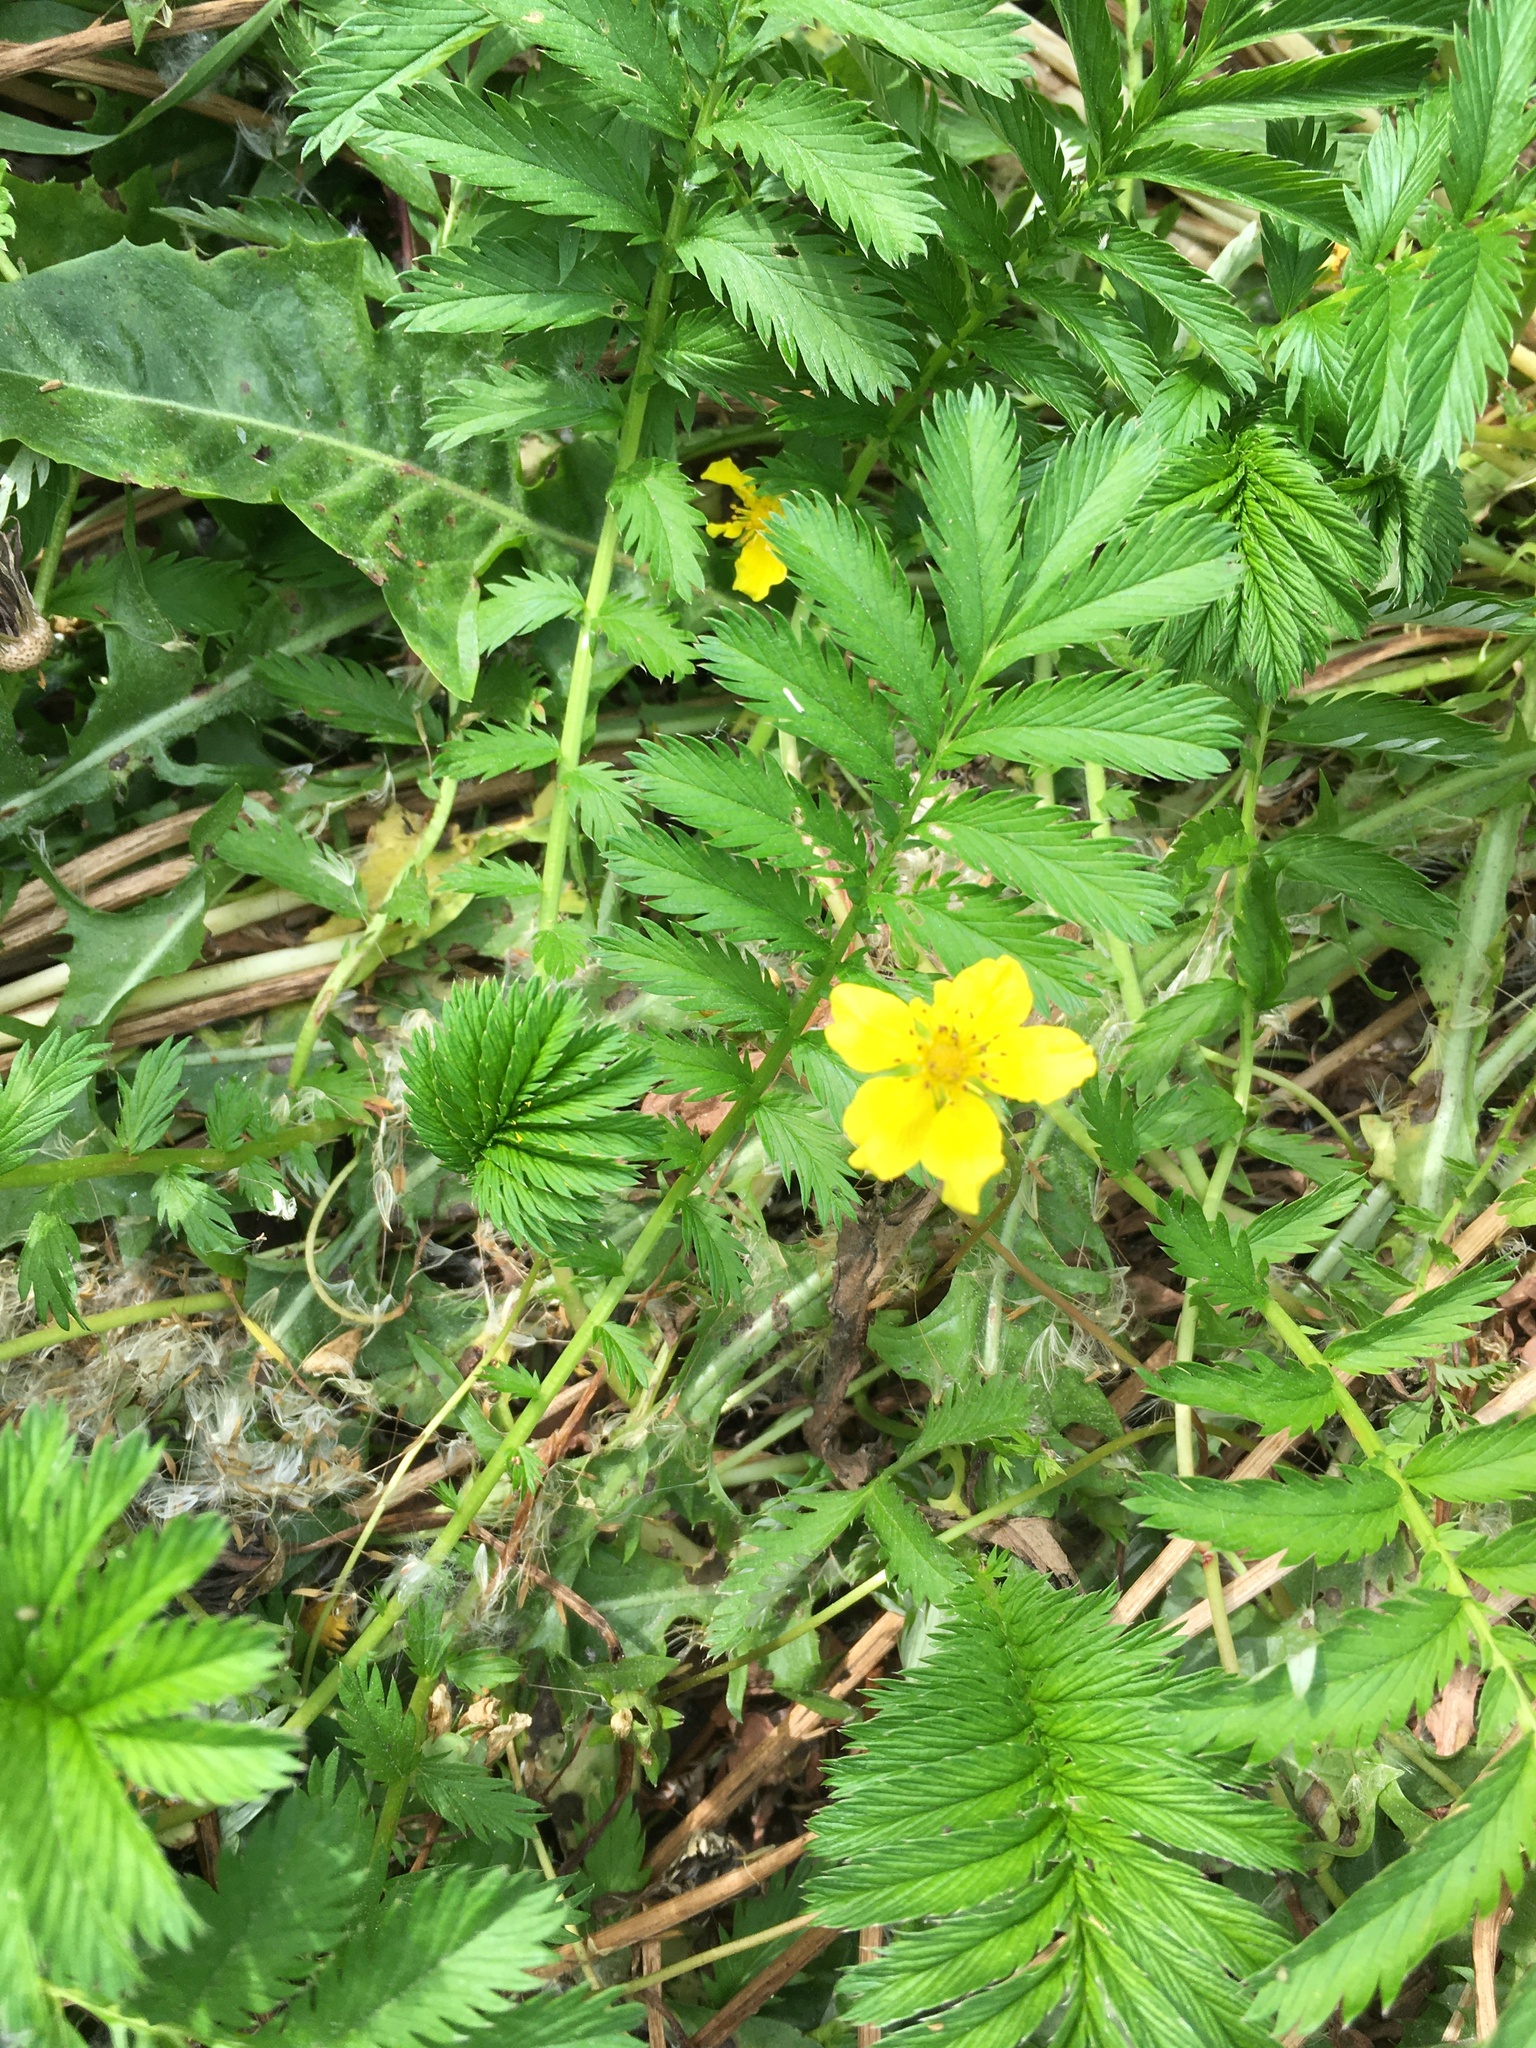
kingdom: Plantae
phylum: Tracheophyta
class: Magnoliopsida
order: Rosales
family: Rosaceae
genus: Argentina
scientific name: Argentina anserina
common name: Common silverweed
